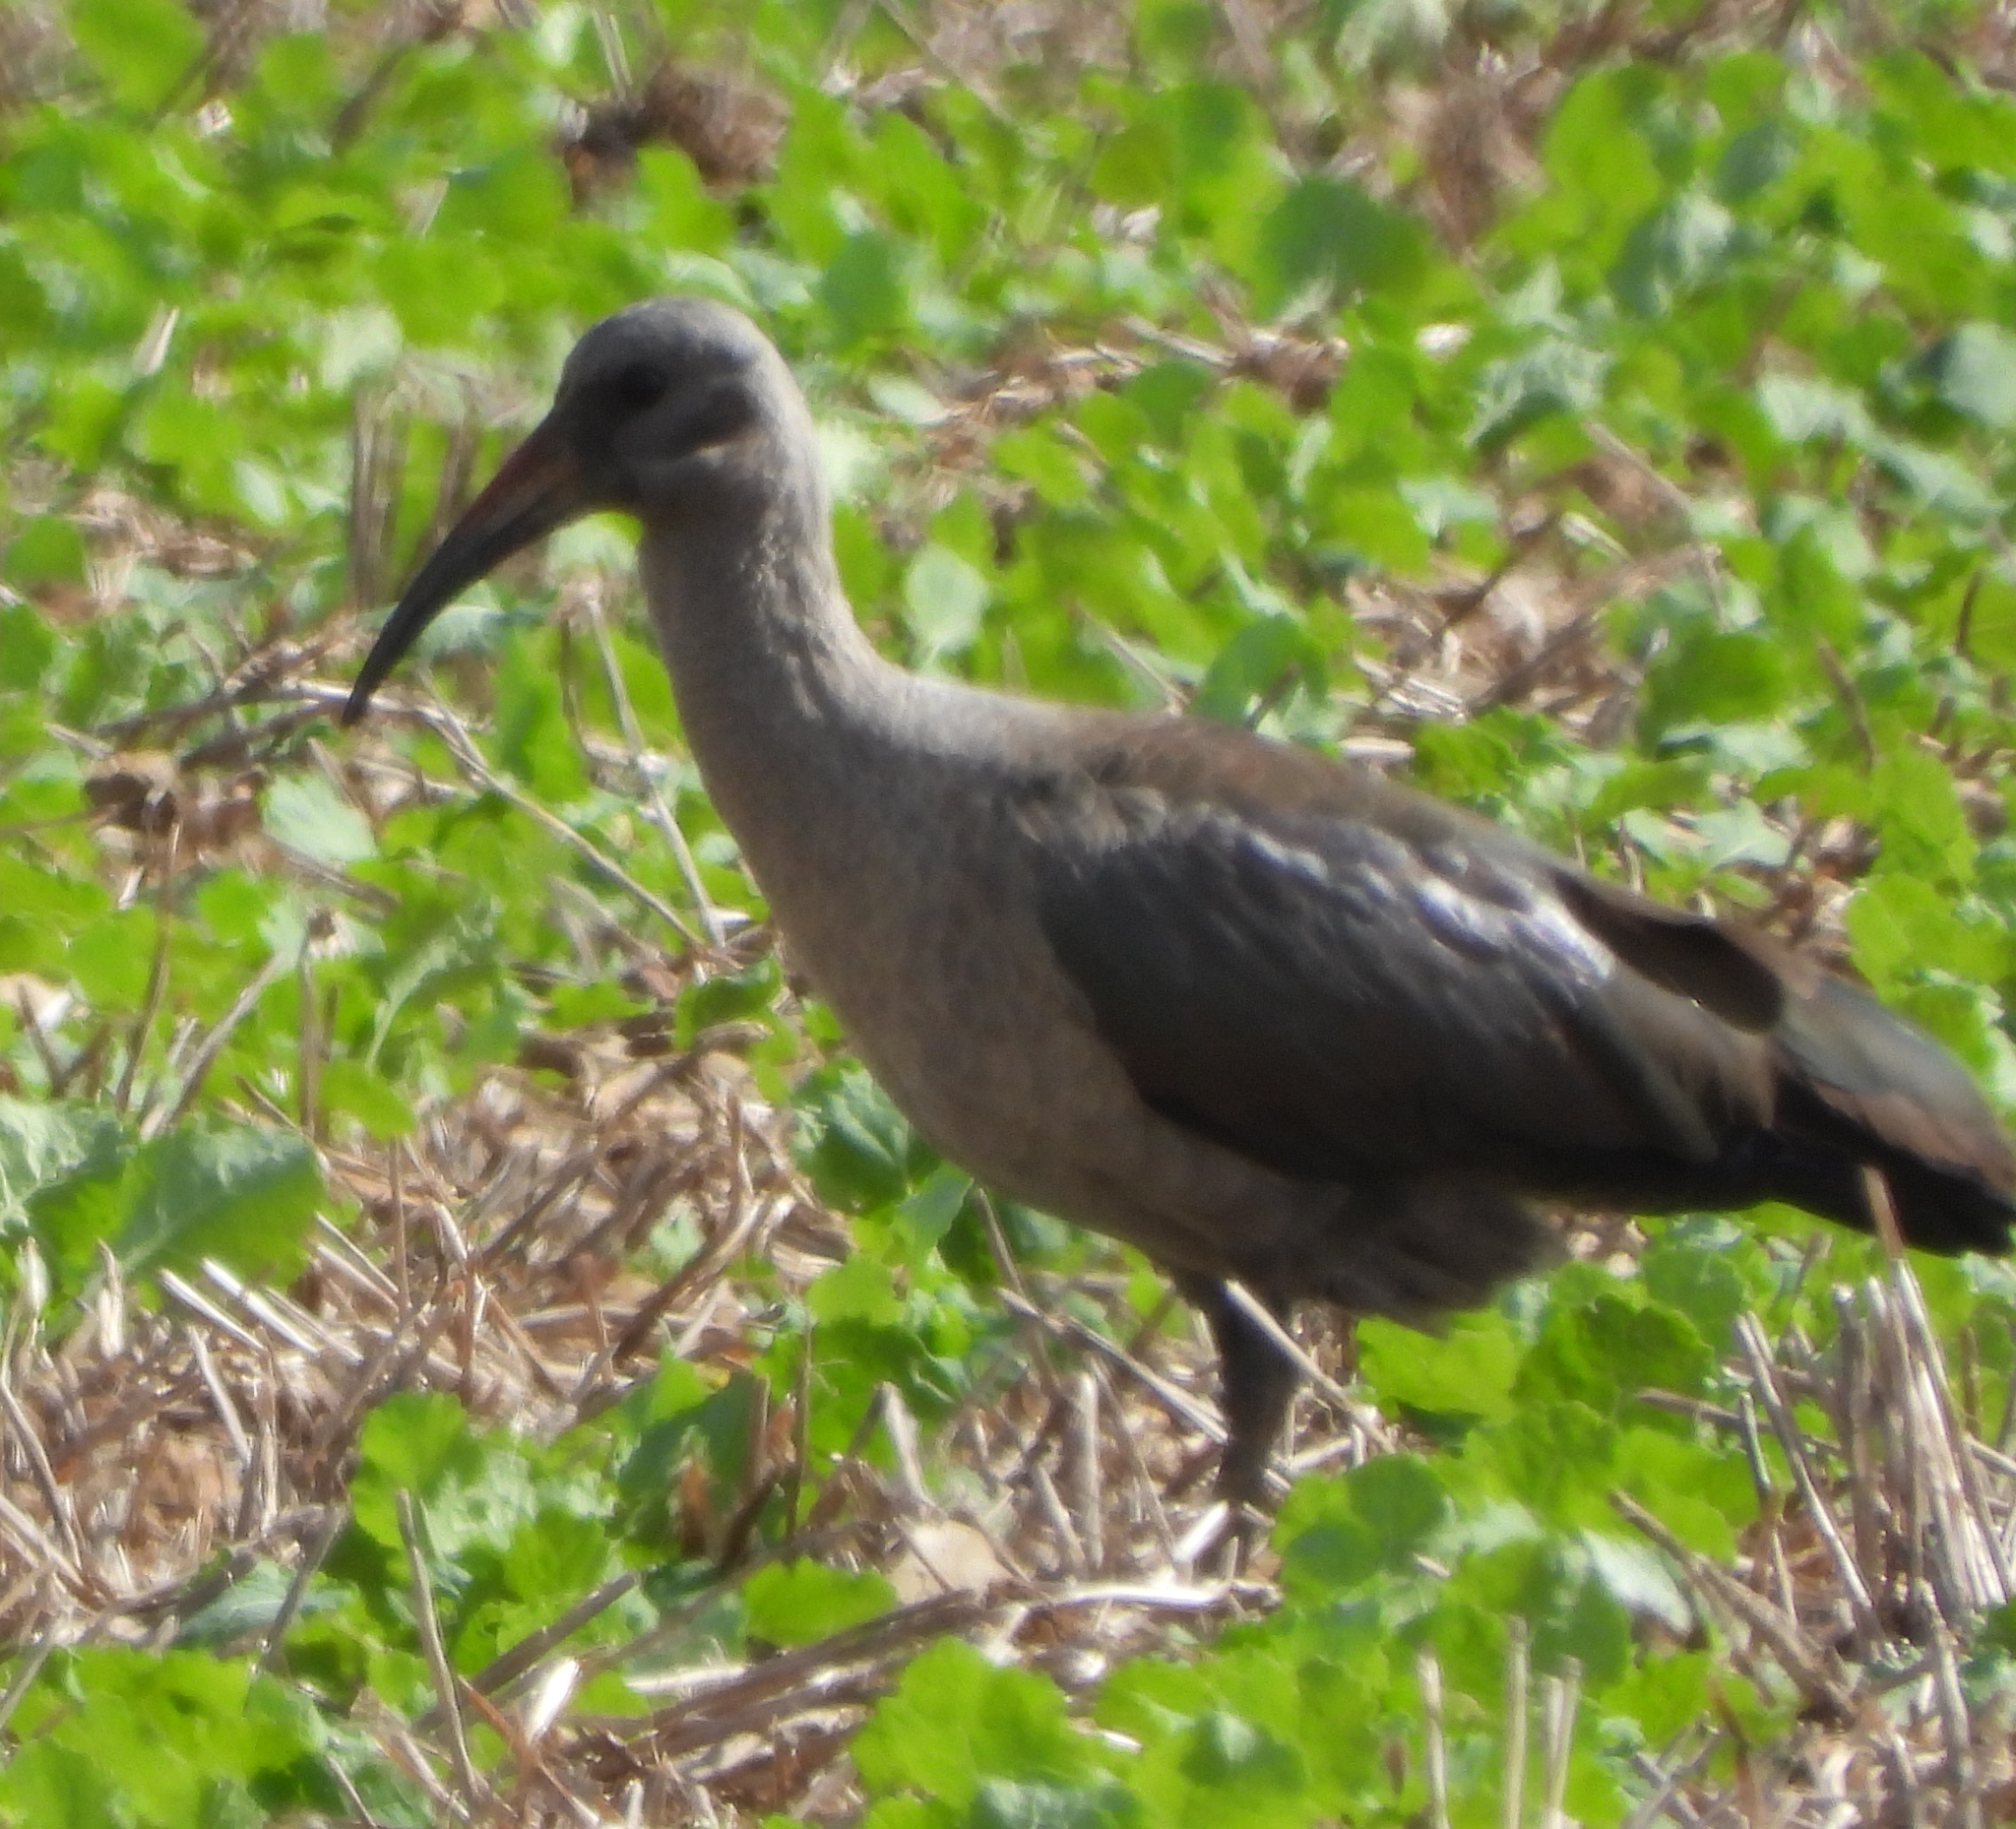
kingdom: Animalia
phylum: Chordata
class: Aves
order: Pelecaniformes
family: Threskiornithidae
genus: Bostrychia
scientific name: Bostrychia hagedash
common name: Hadada ibis
